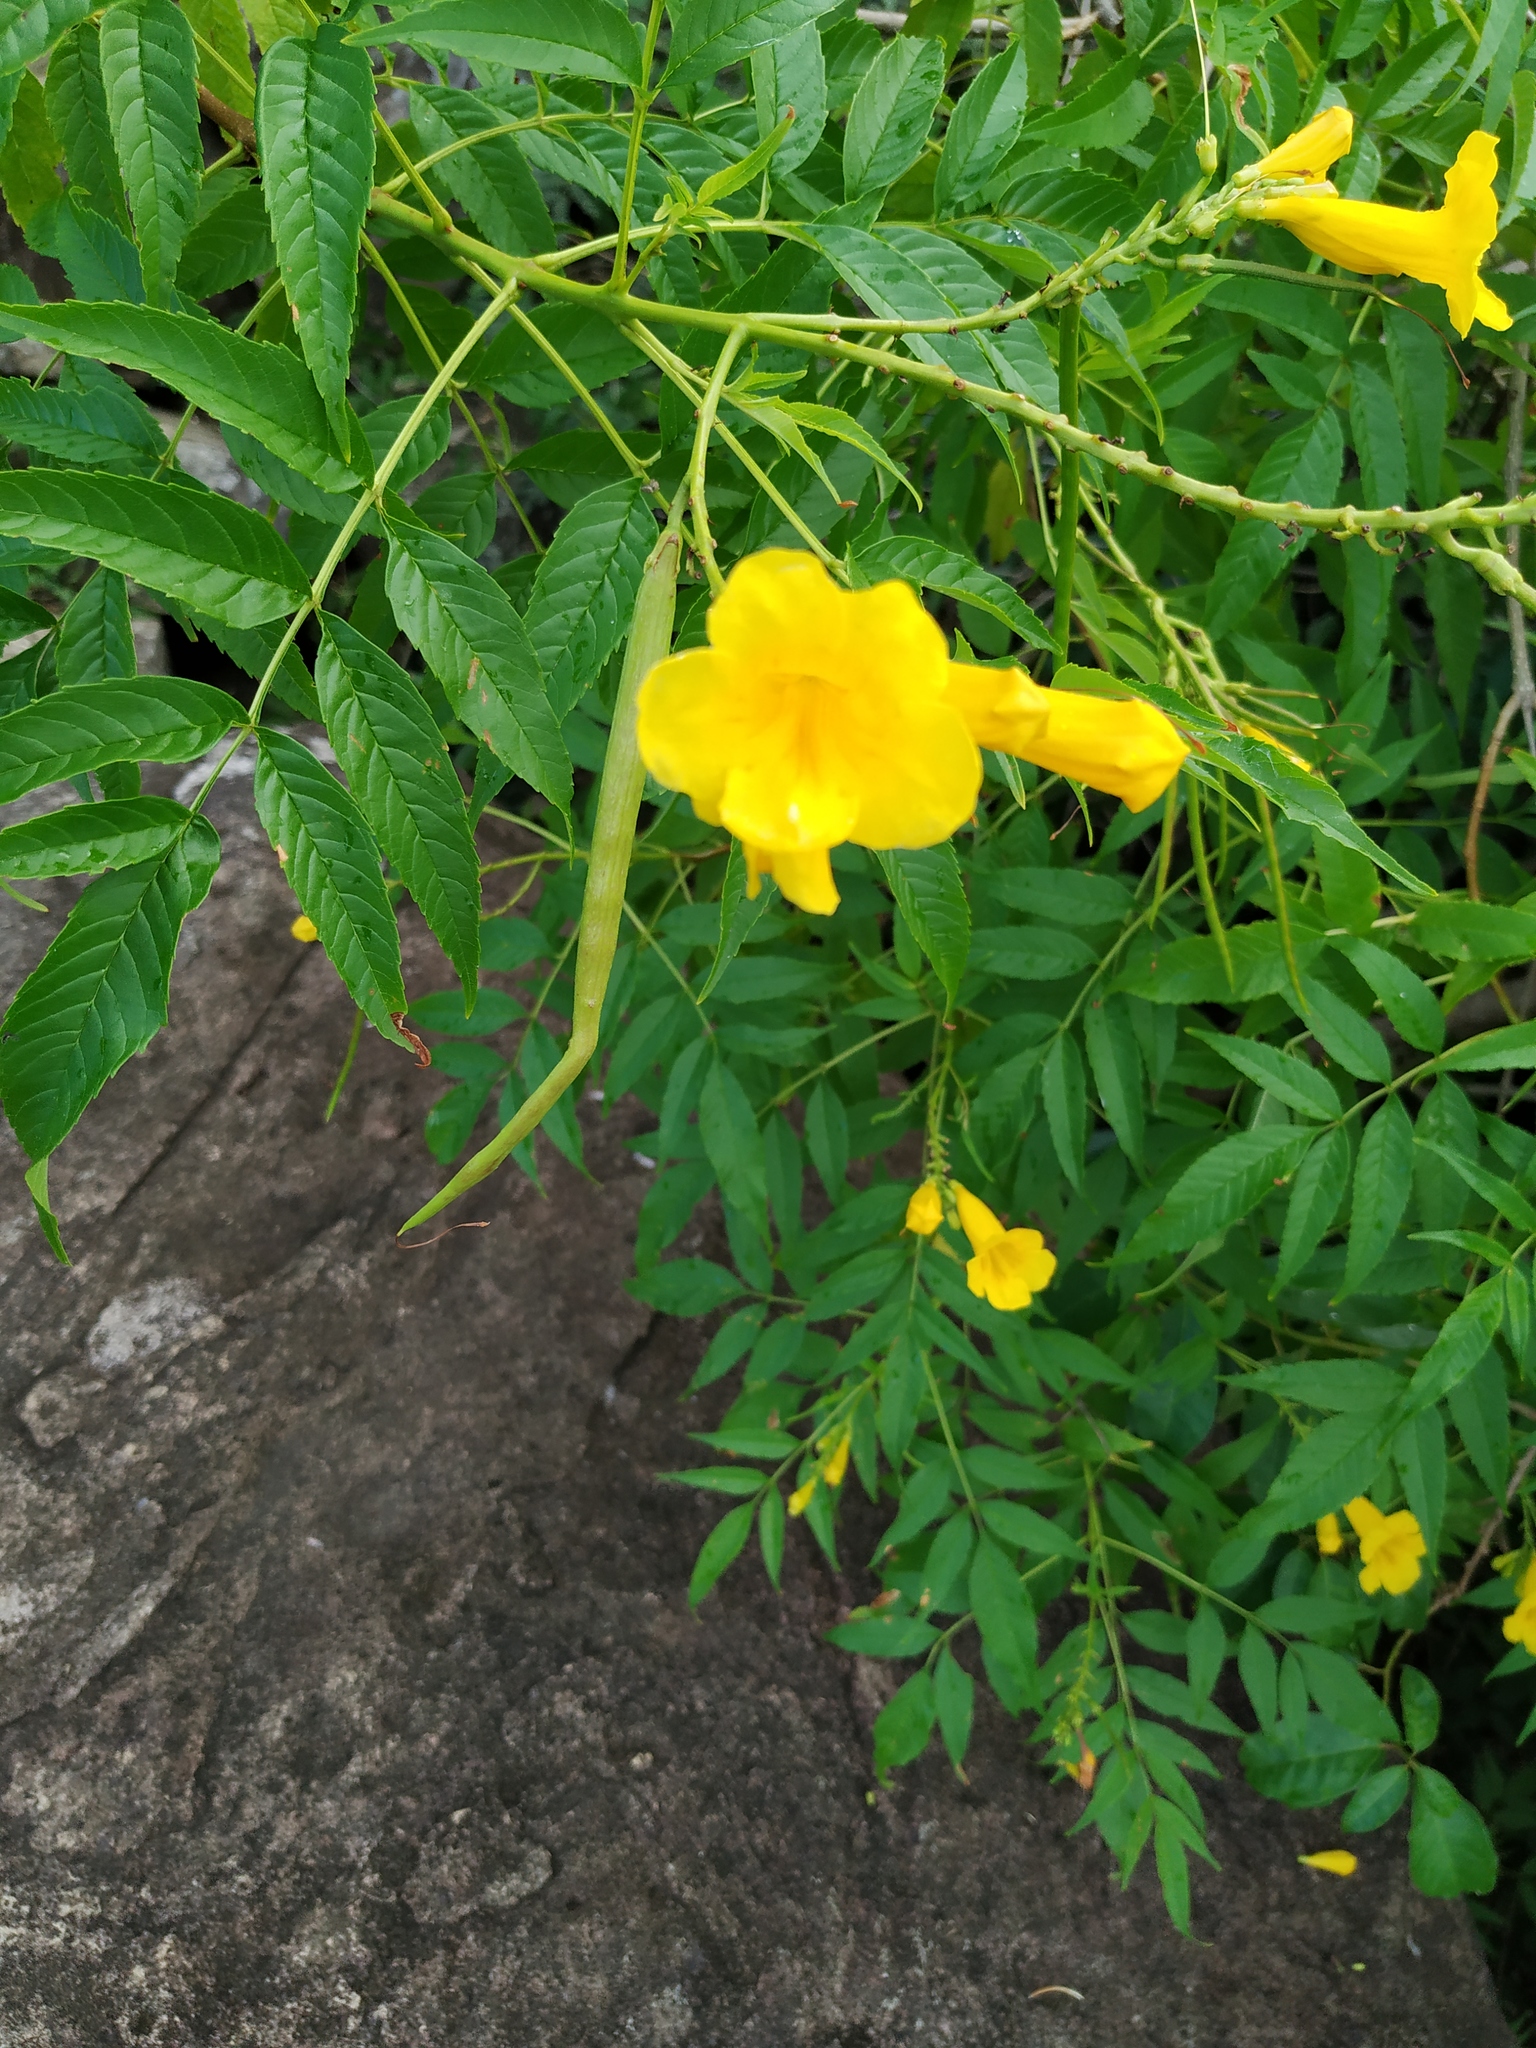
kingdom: Plantae
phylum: Tracheophyta
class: Magnoliopsida
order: Lamiales
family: Bignoniaceae
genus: Tecoma
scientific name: Tecoma stans
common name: Yellow trumpetbush
